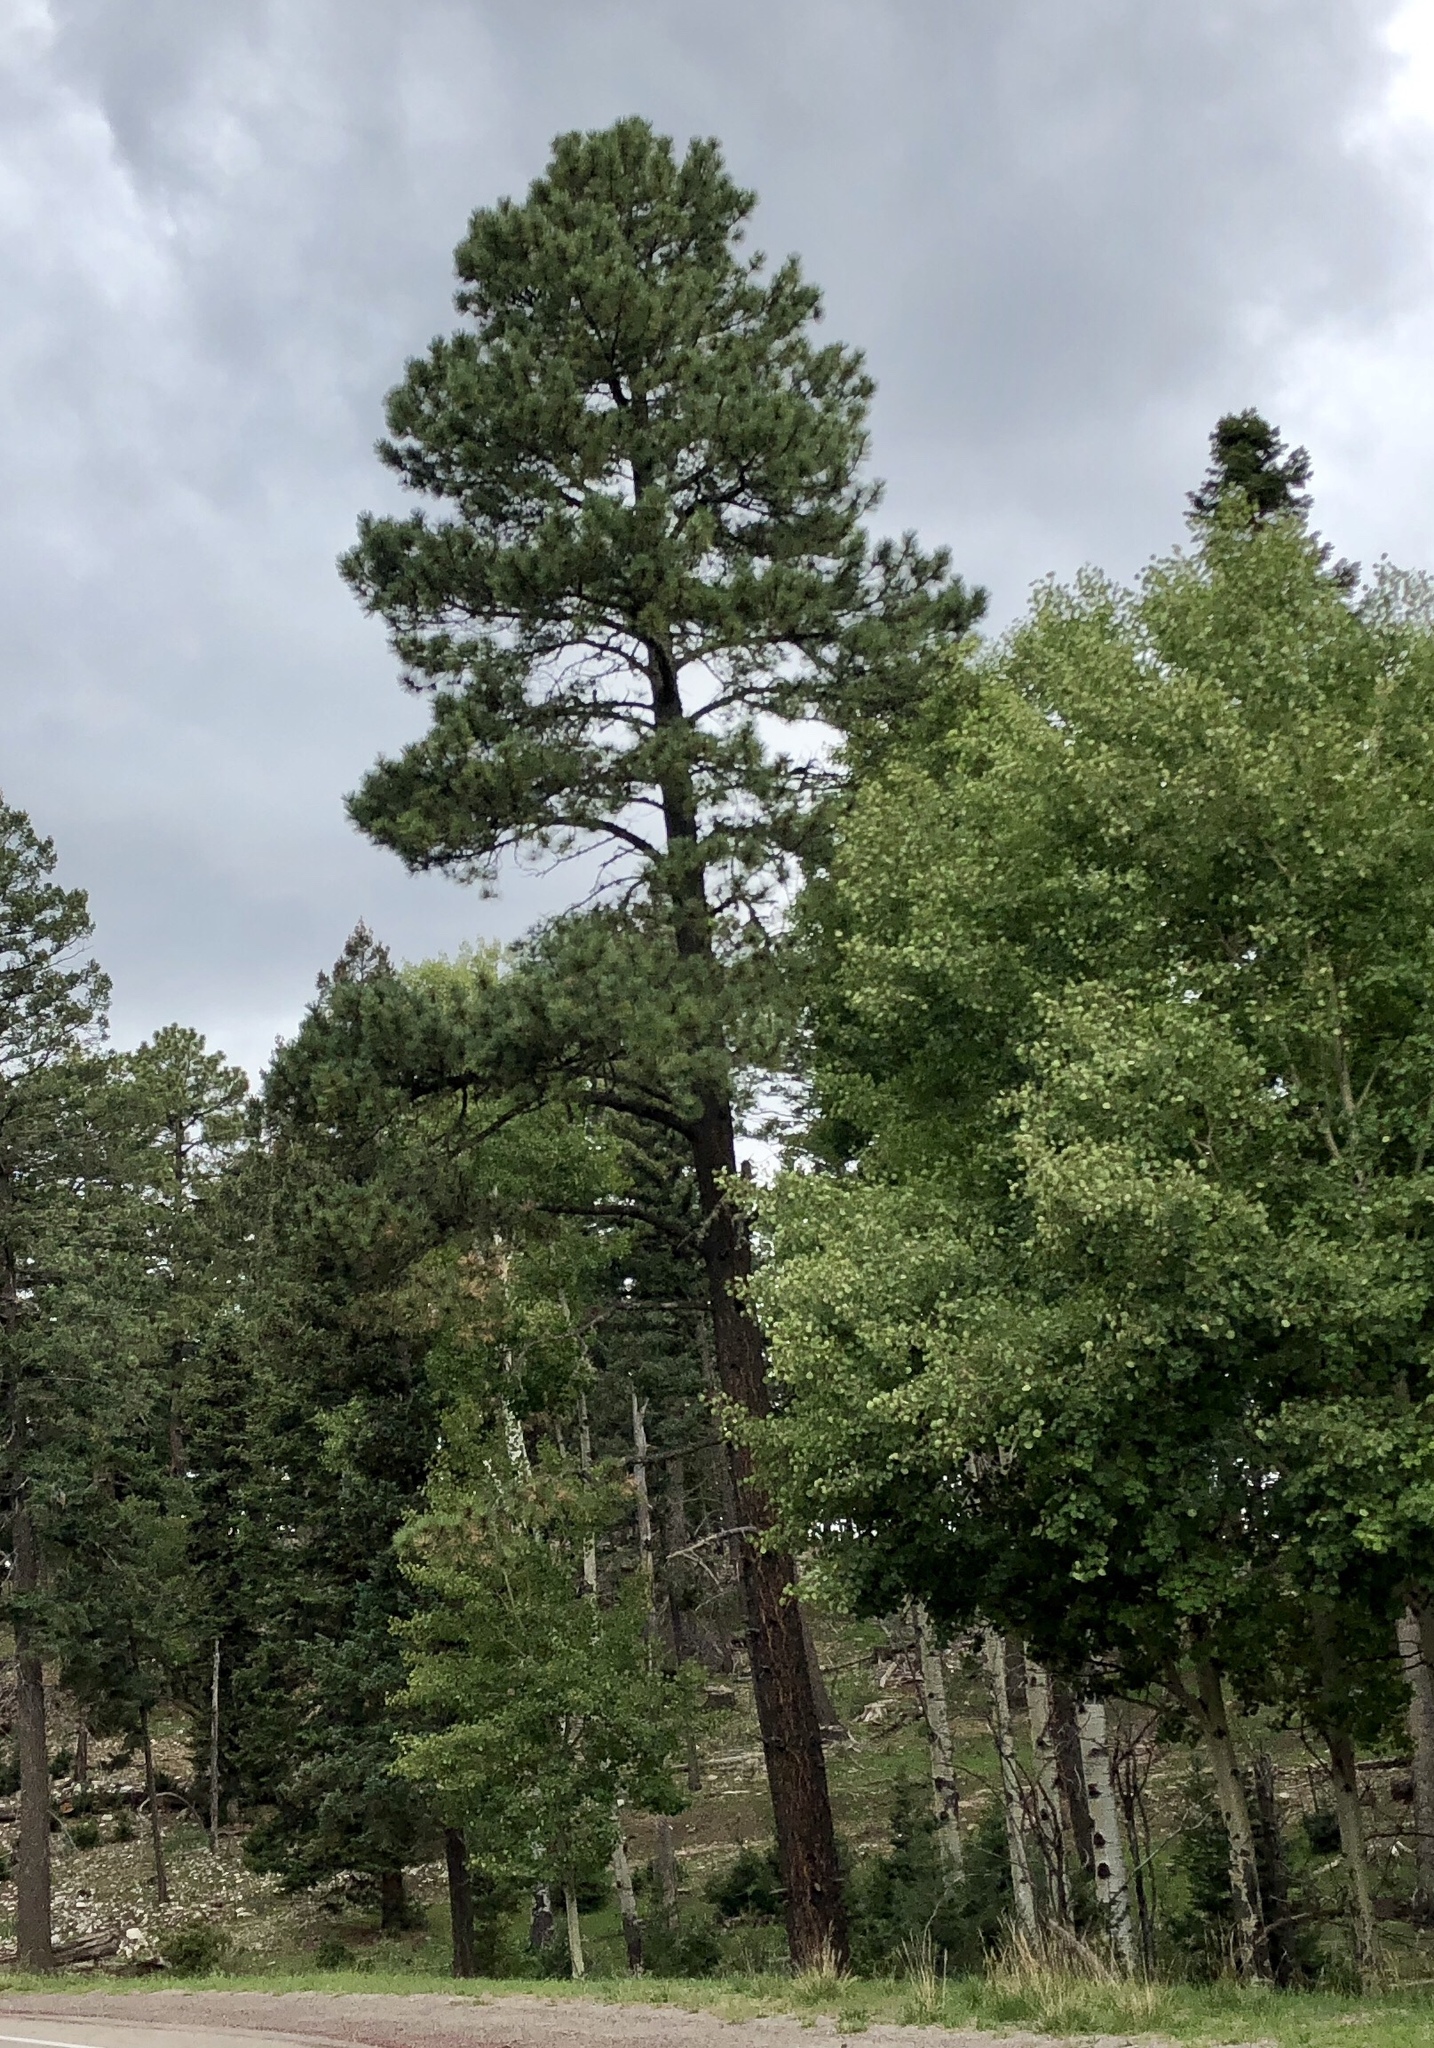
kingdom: Plantae
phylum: Tracheophyta
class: Pinopsida
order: Pinales
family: Pinaceae
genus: Pinus
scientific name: Pinus ponderosa
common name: Western yellow-pine
